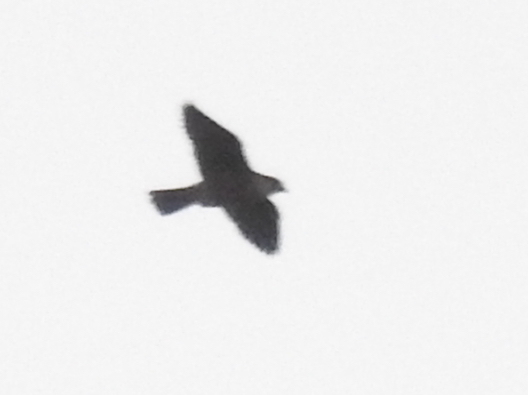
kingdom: Animalia
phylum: Chordata
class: Aves
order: Falconiformes
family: Falconidae
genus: Falco
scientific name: Falco peregrinus
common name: Peregrine falcon
